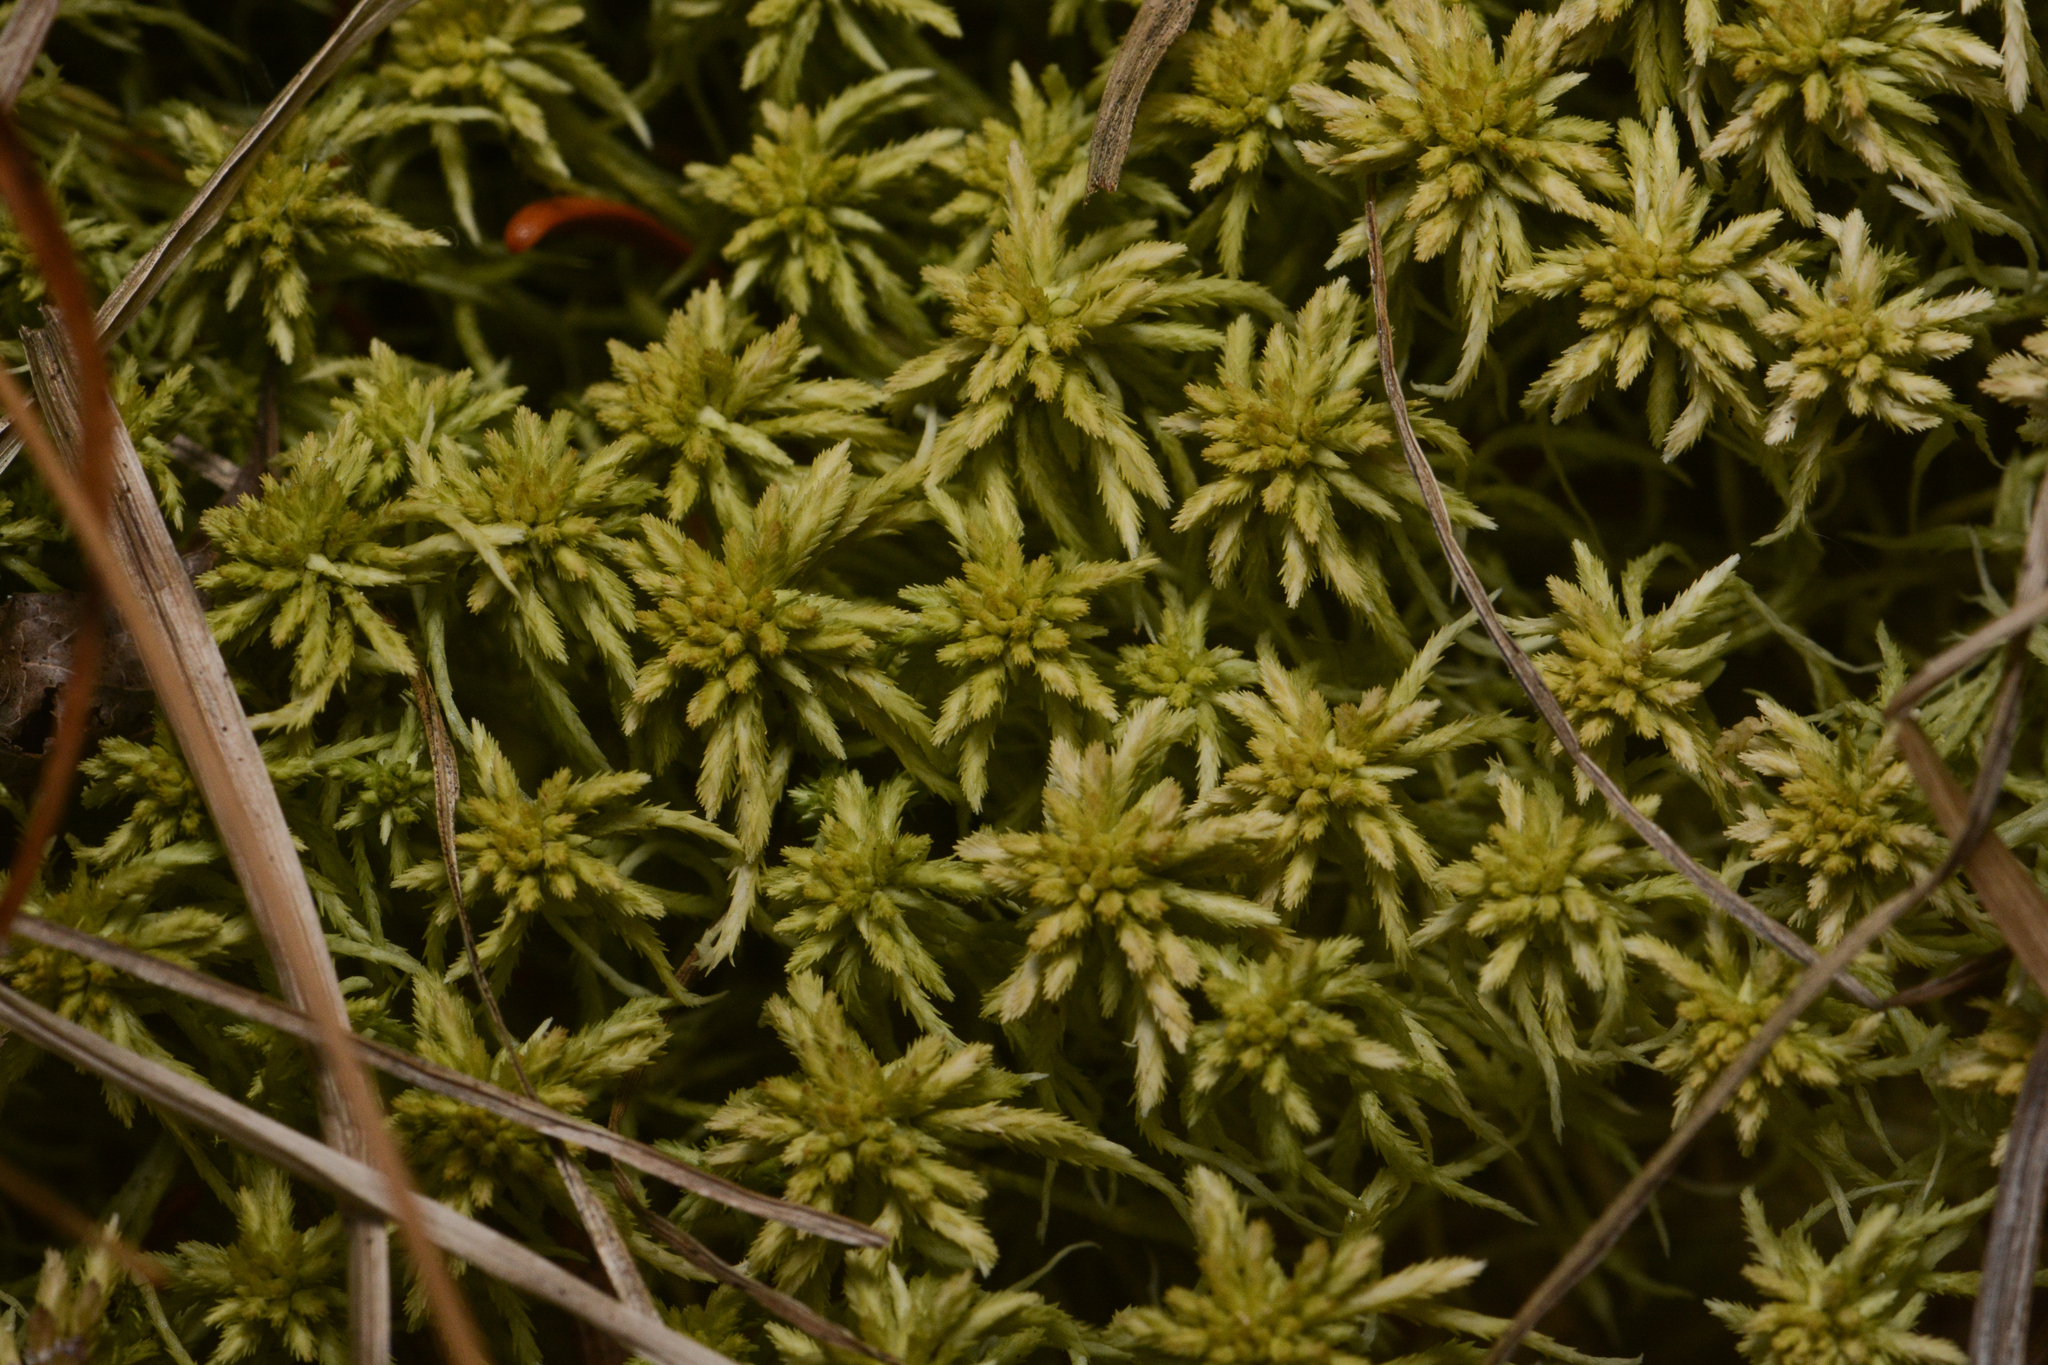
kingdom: Plantae
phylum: Bryophyta
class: Sphagnopsida
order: Sphagnales
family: Sphagnaceae
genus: Sphagnum
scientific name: Sphagnum rubiginosum
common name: Variegated peat moss
